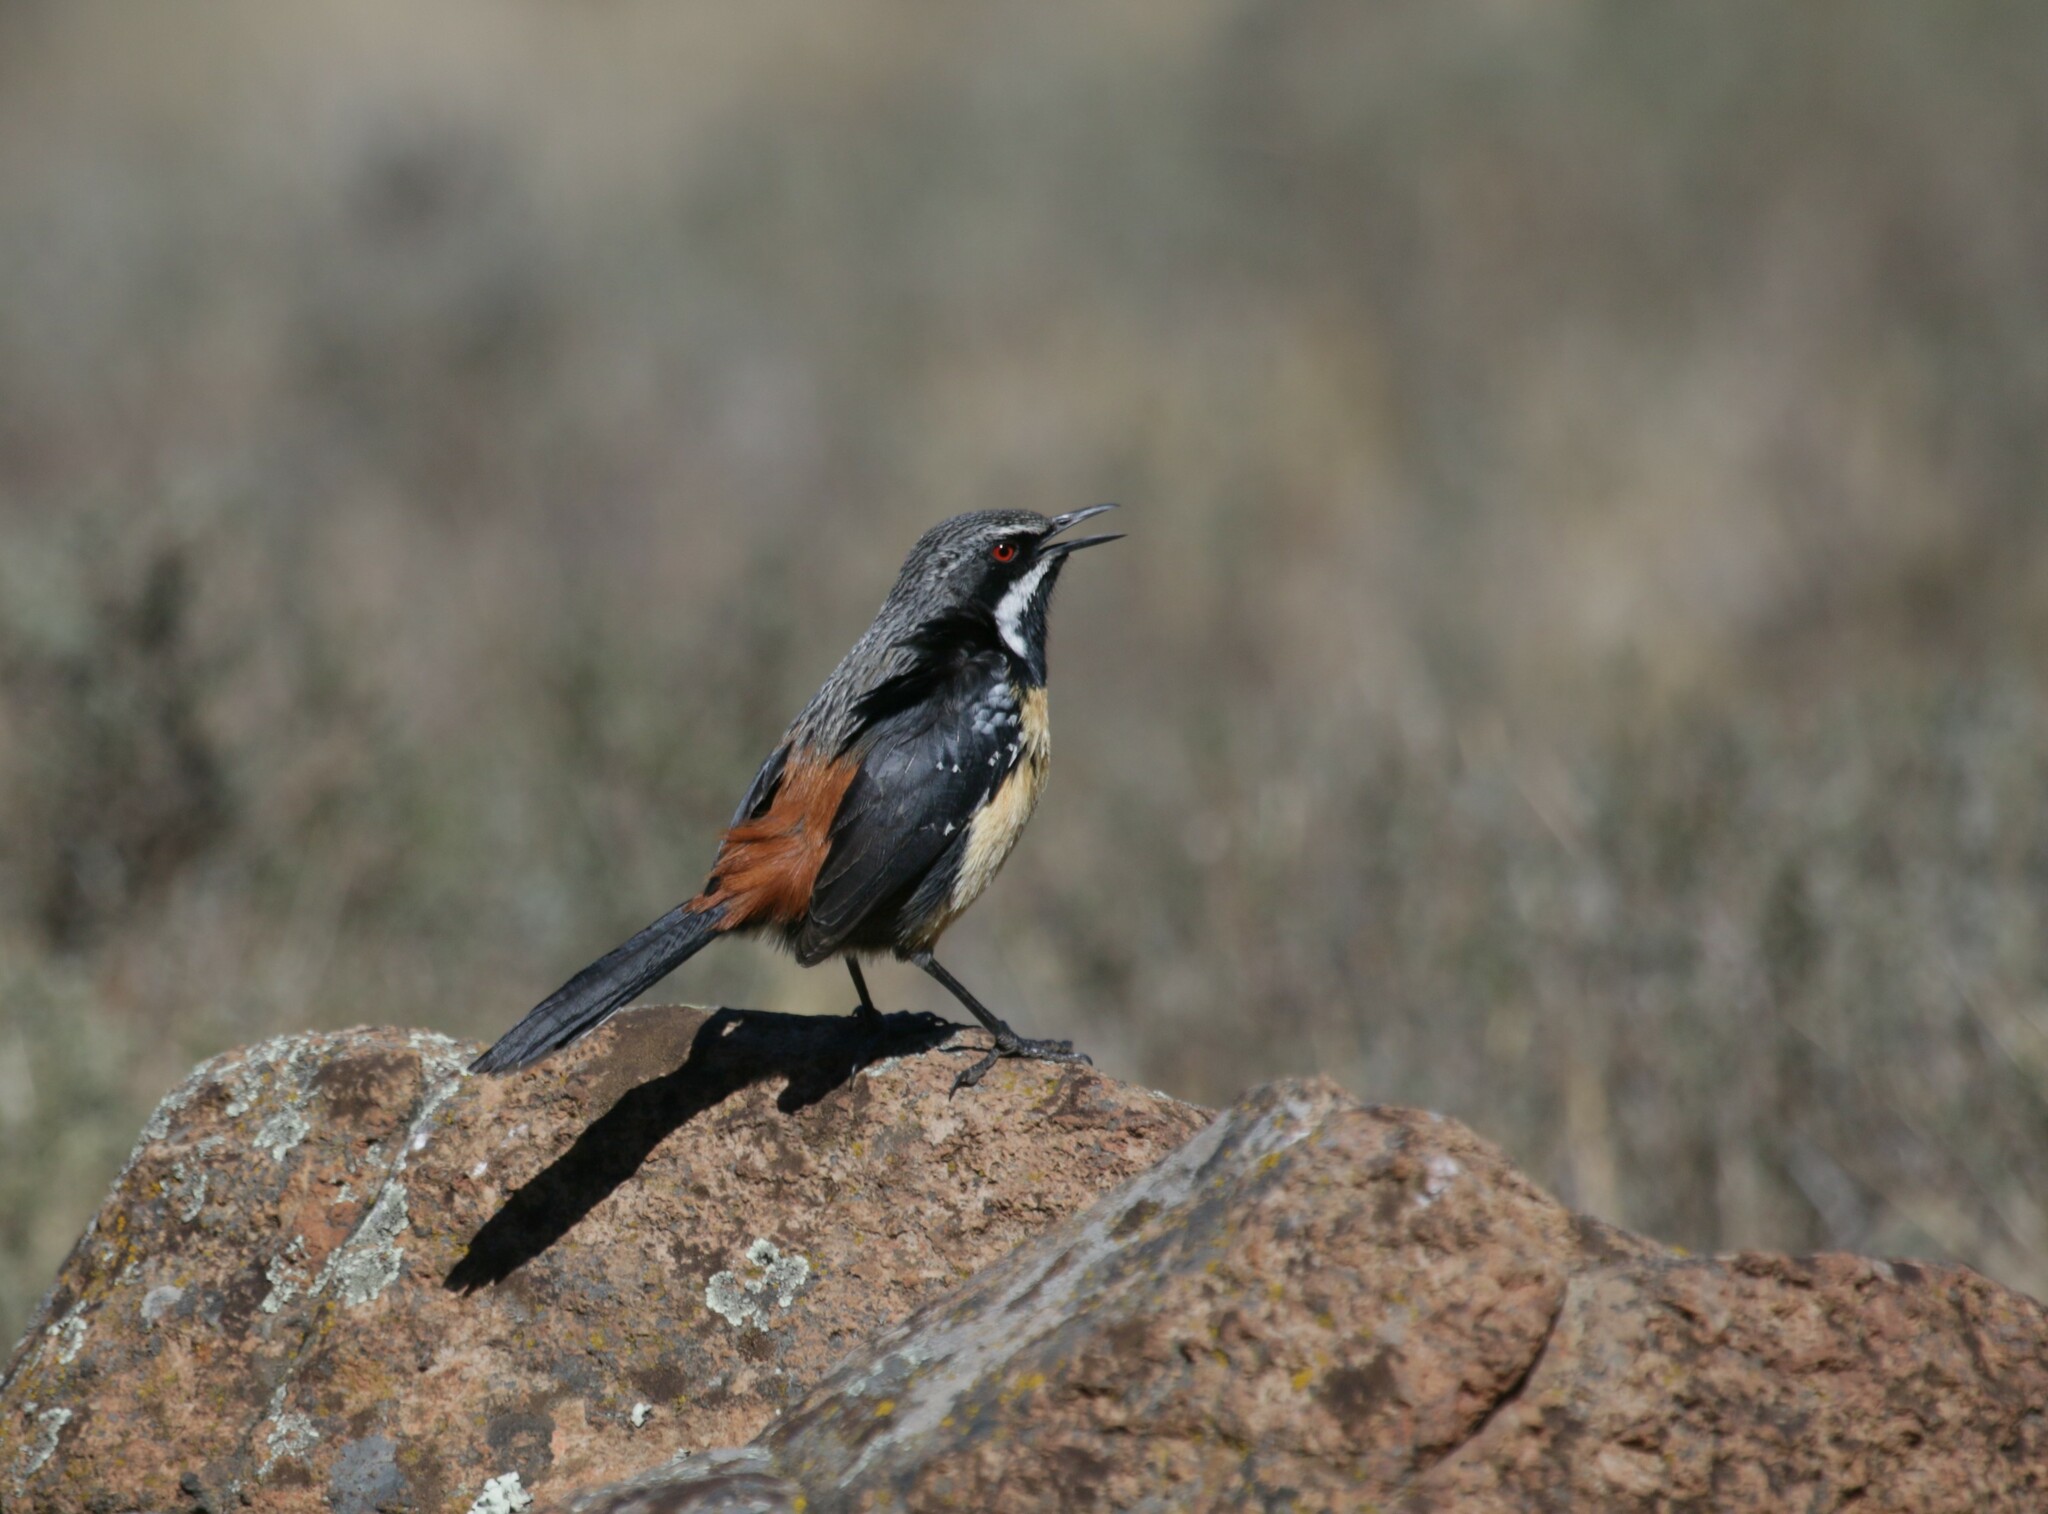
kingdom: Animalia
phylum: Chordata
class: Aves
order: Passeriformes
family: Chaetopidae
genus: Chaetops
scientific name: Chaetops aurantius
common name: Drakensberg rockjumper
